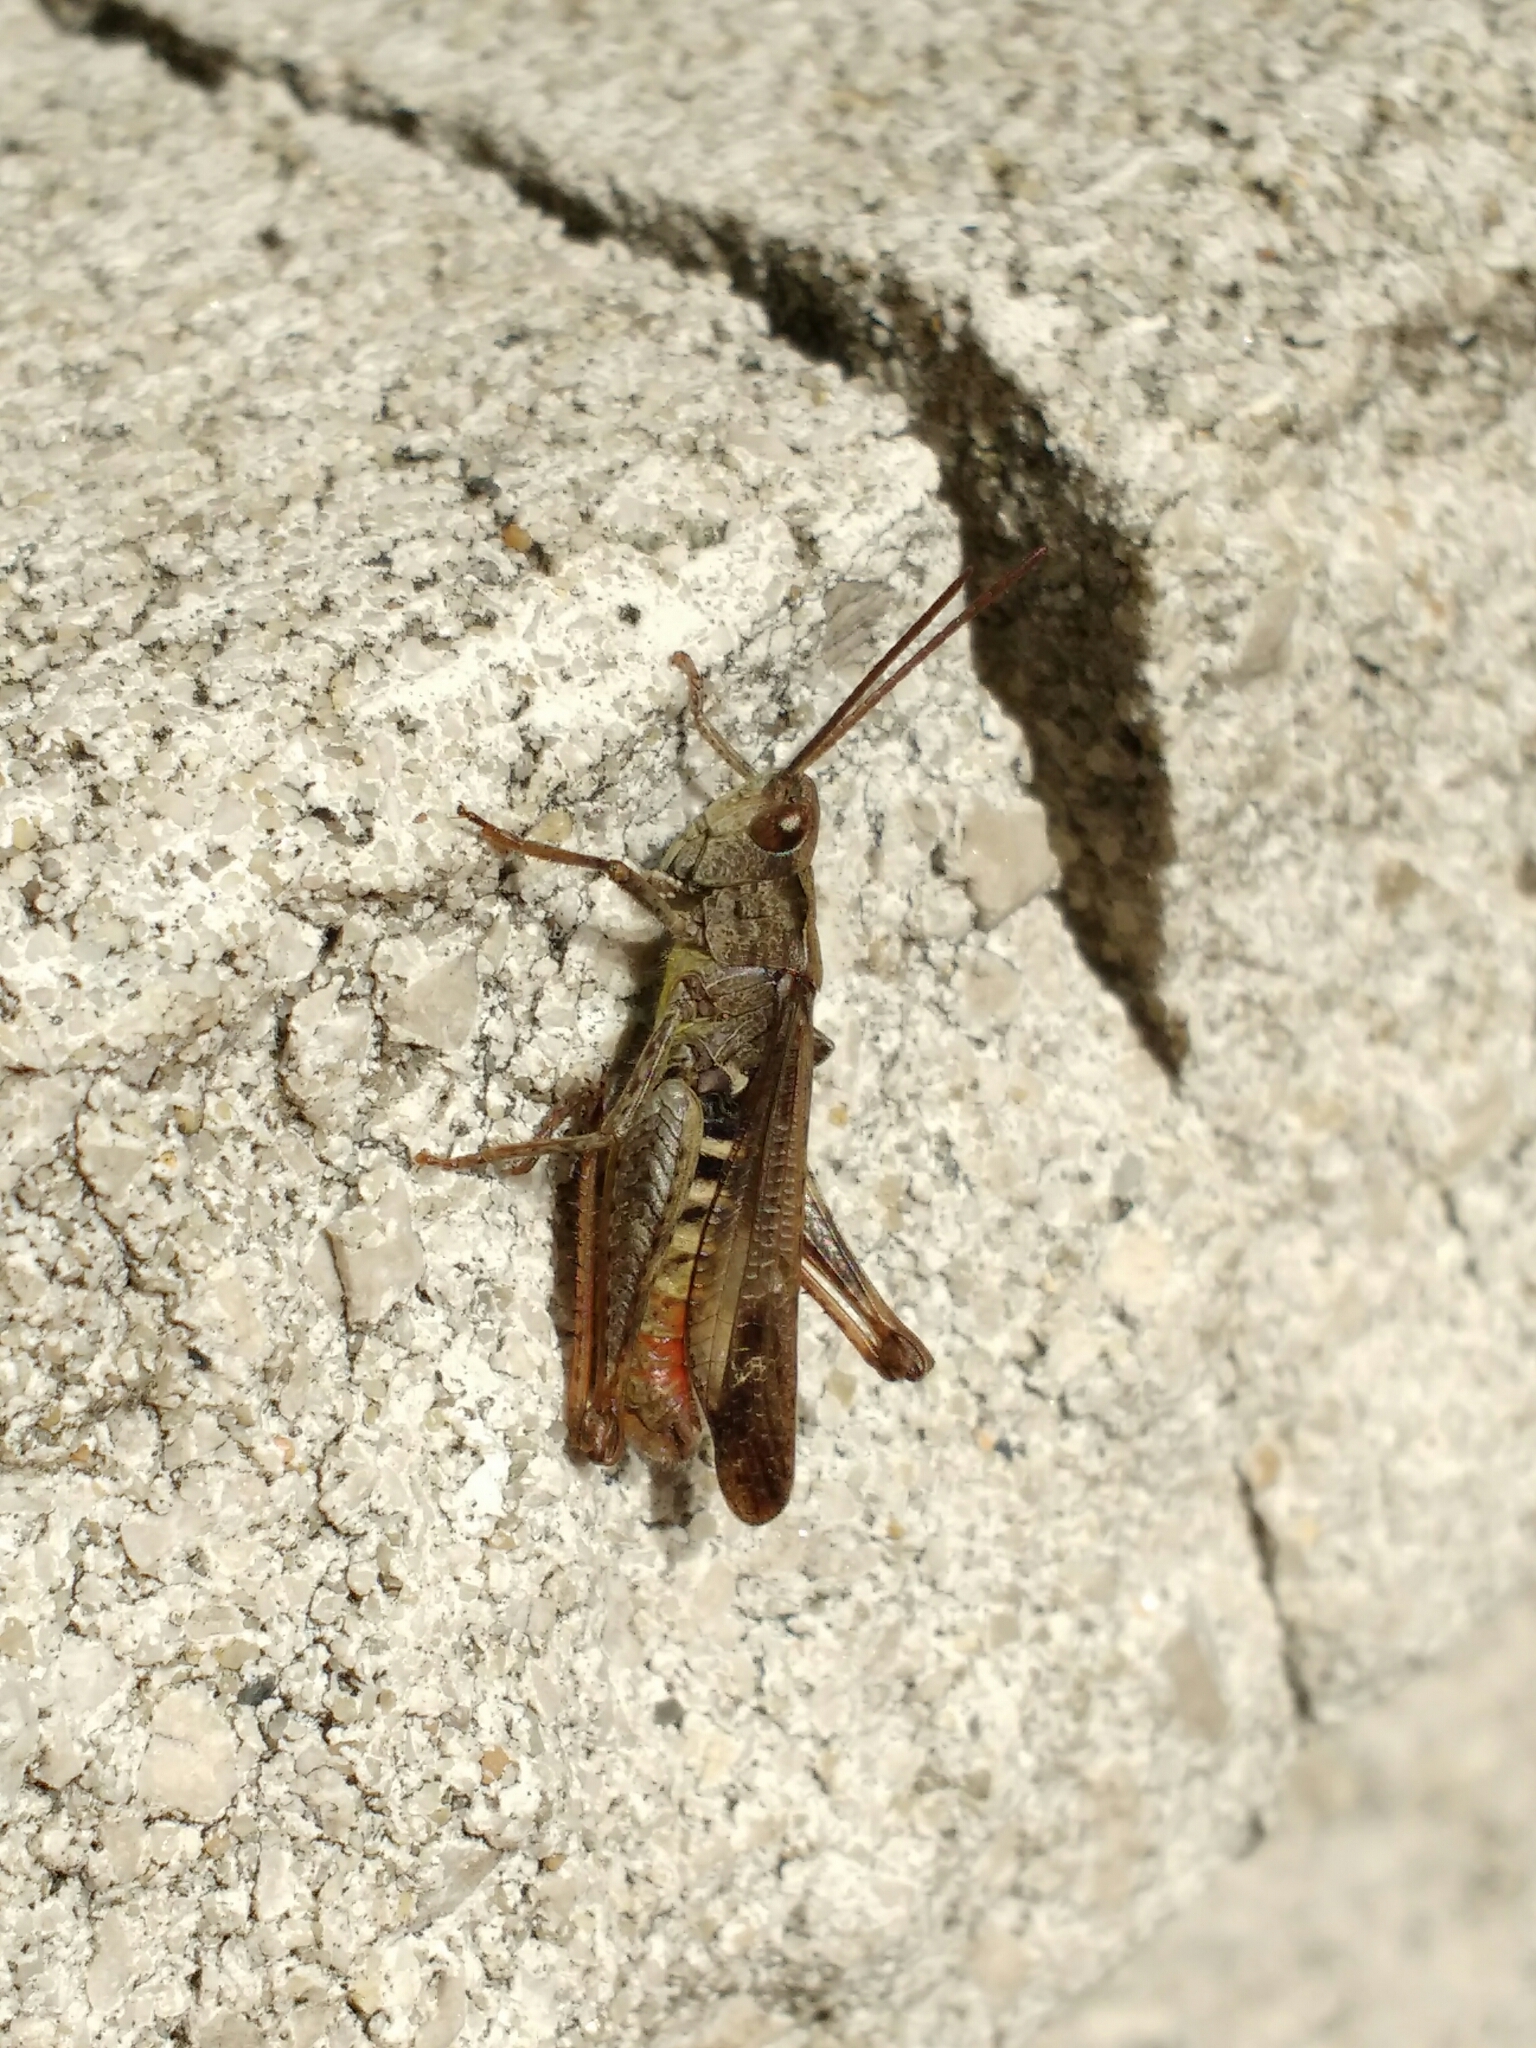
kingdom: Animalia
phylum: Arthropoda
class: Insecta
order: Orthoptera
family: Acrididae
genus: Chorthippus
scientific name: Chorthippus biguttulus
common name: Bow-winged grasshopper
